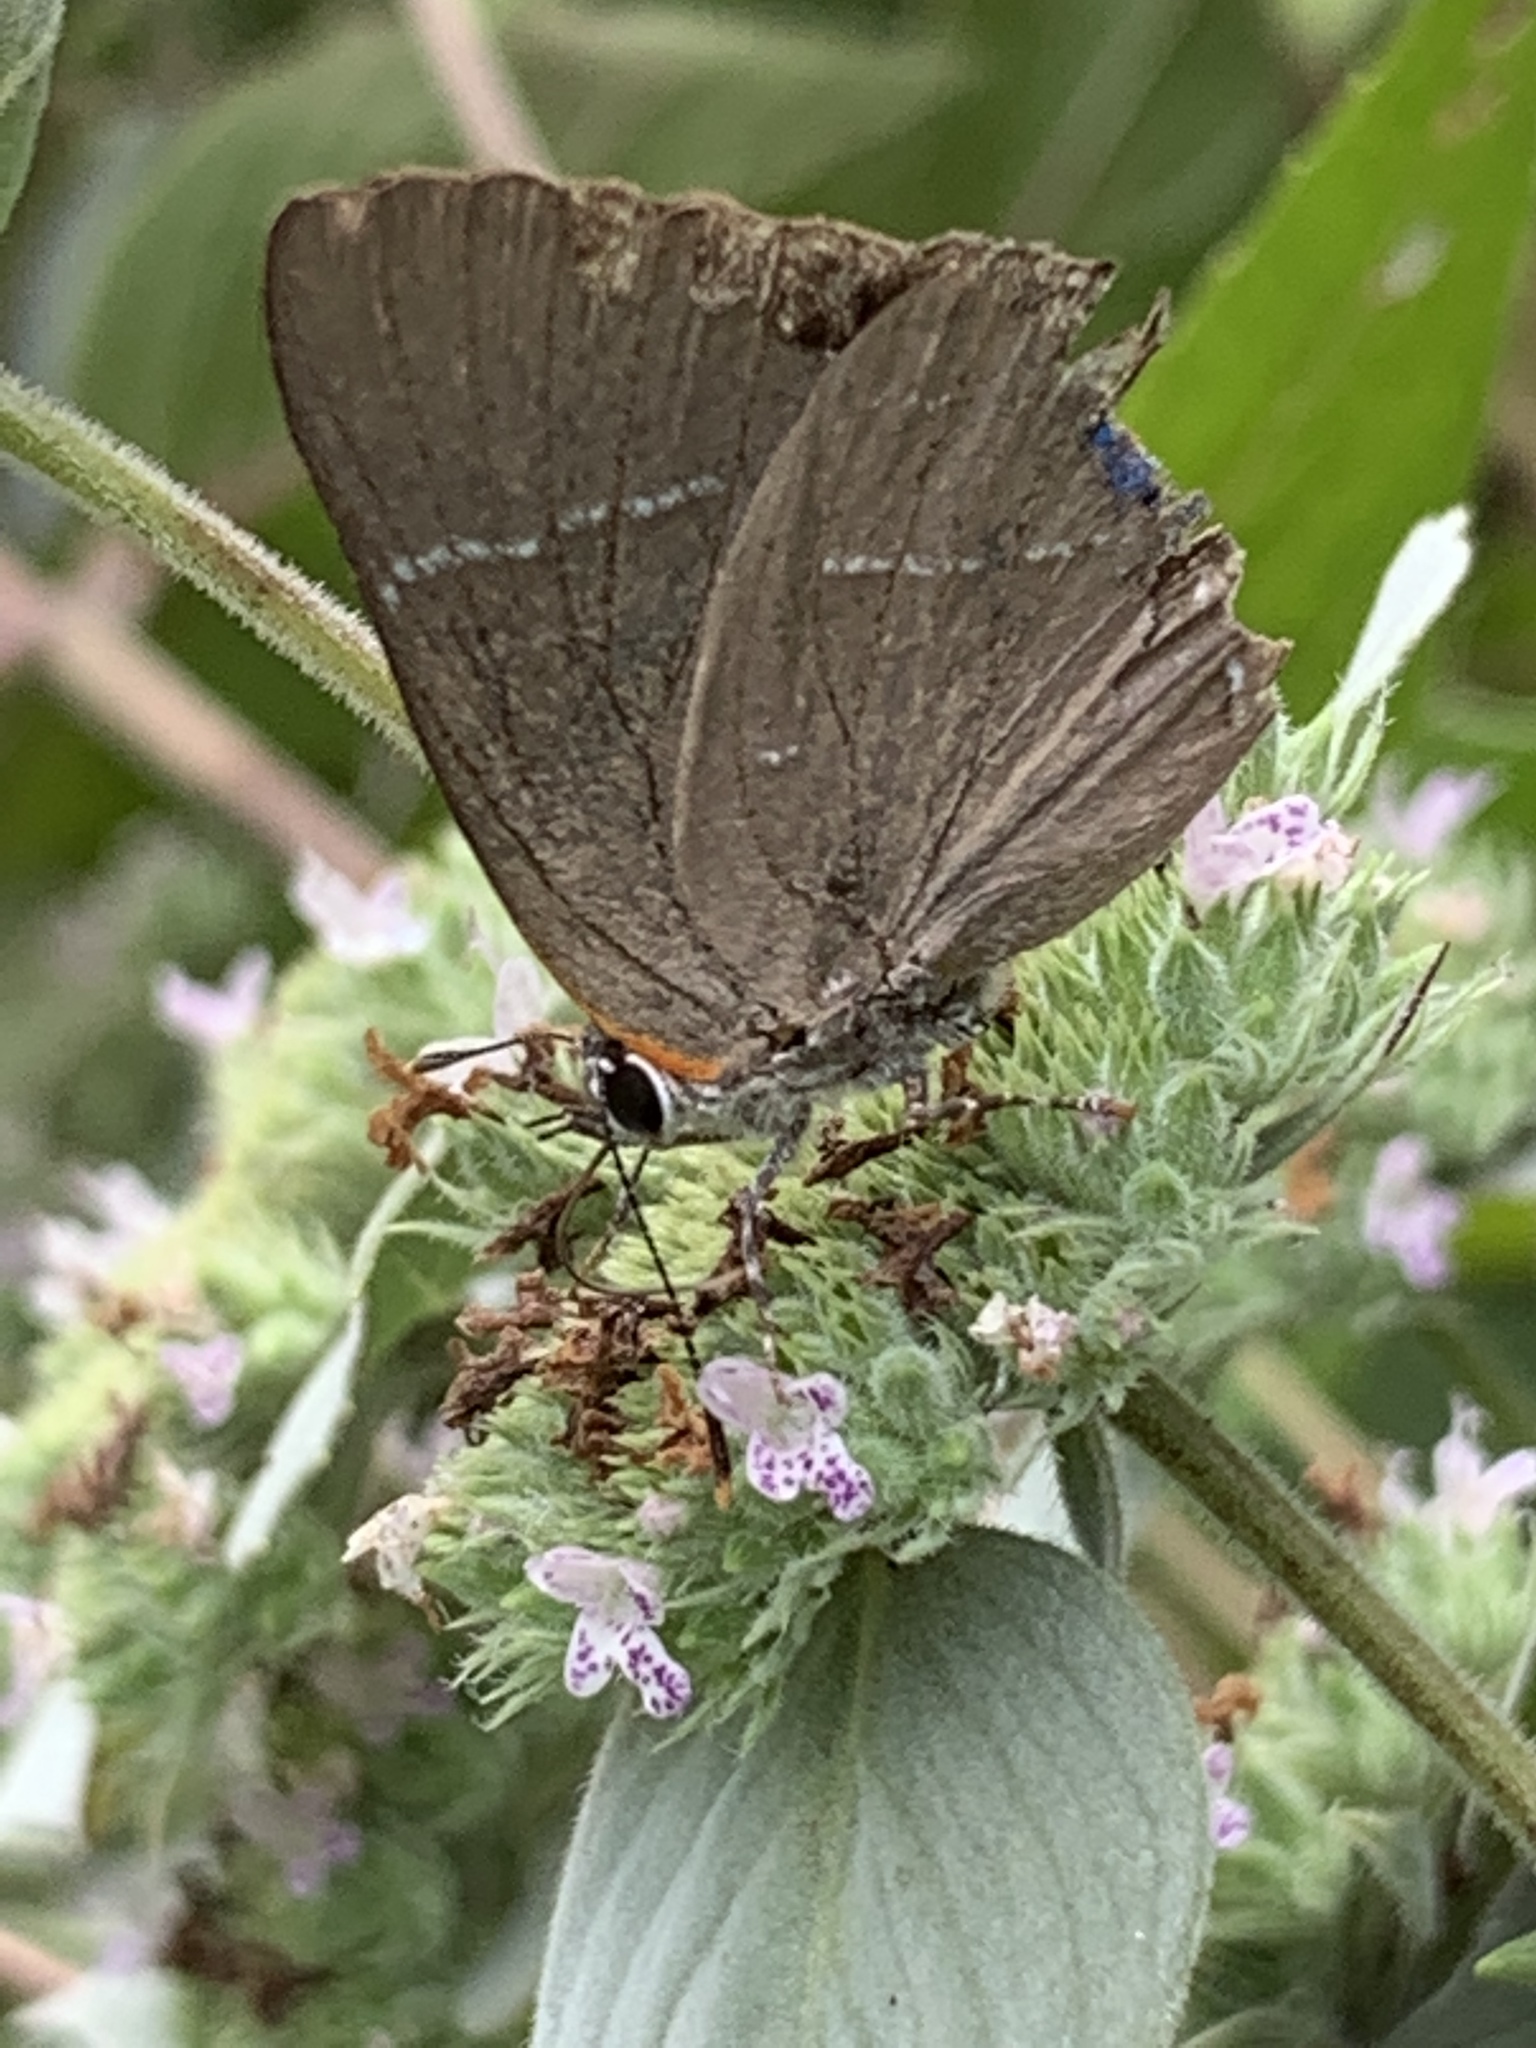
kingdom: Animalia
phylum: Arthropoda
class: Insecta
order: Lepidoptera
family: Lycaenidae
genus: Parrhasius
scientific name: Parrhasius m-album
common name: White m hairstreak
